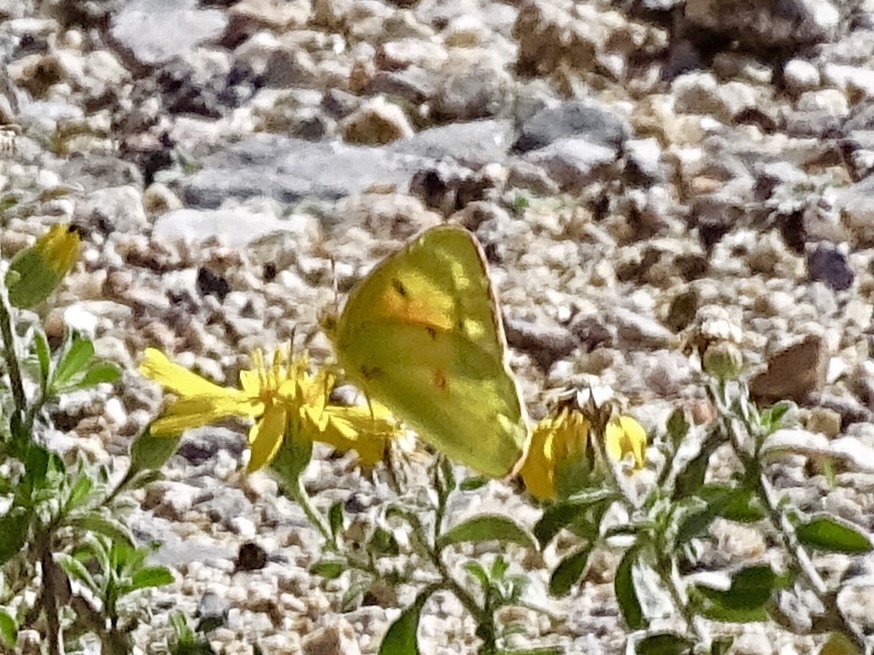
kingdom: Animalia
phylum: Arthropoda
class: Insecta
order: Lepidoptera
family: Pieridae
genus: Colias
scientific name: Colias eurytheme
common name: Alfalfa butterfly
